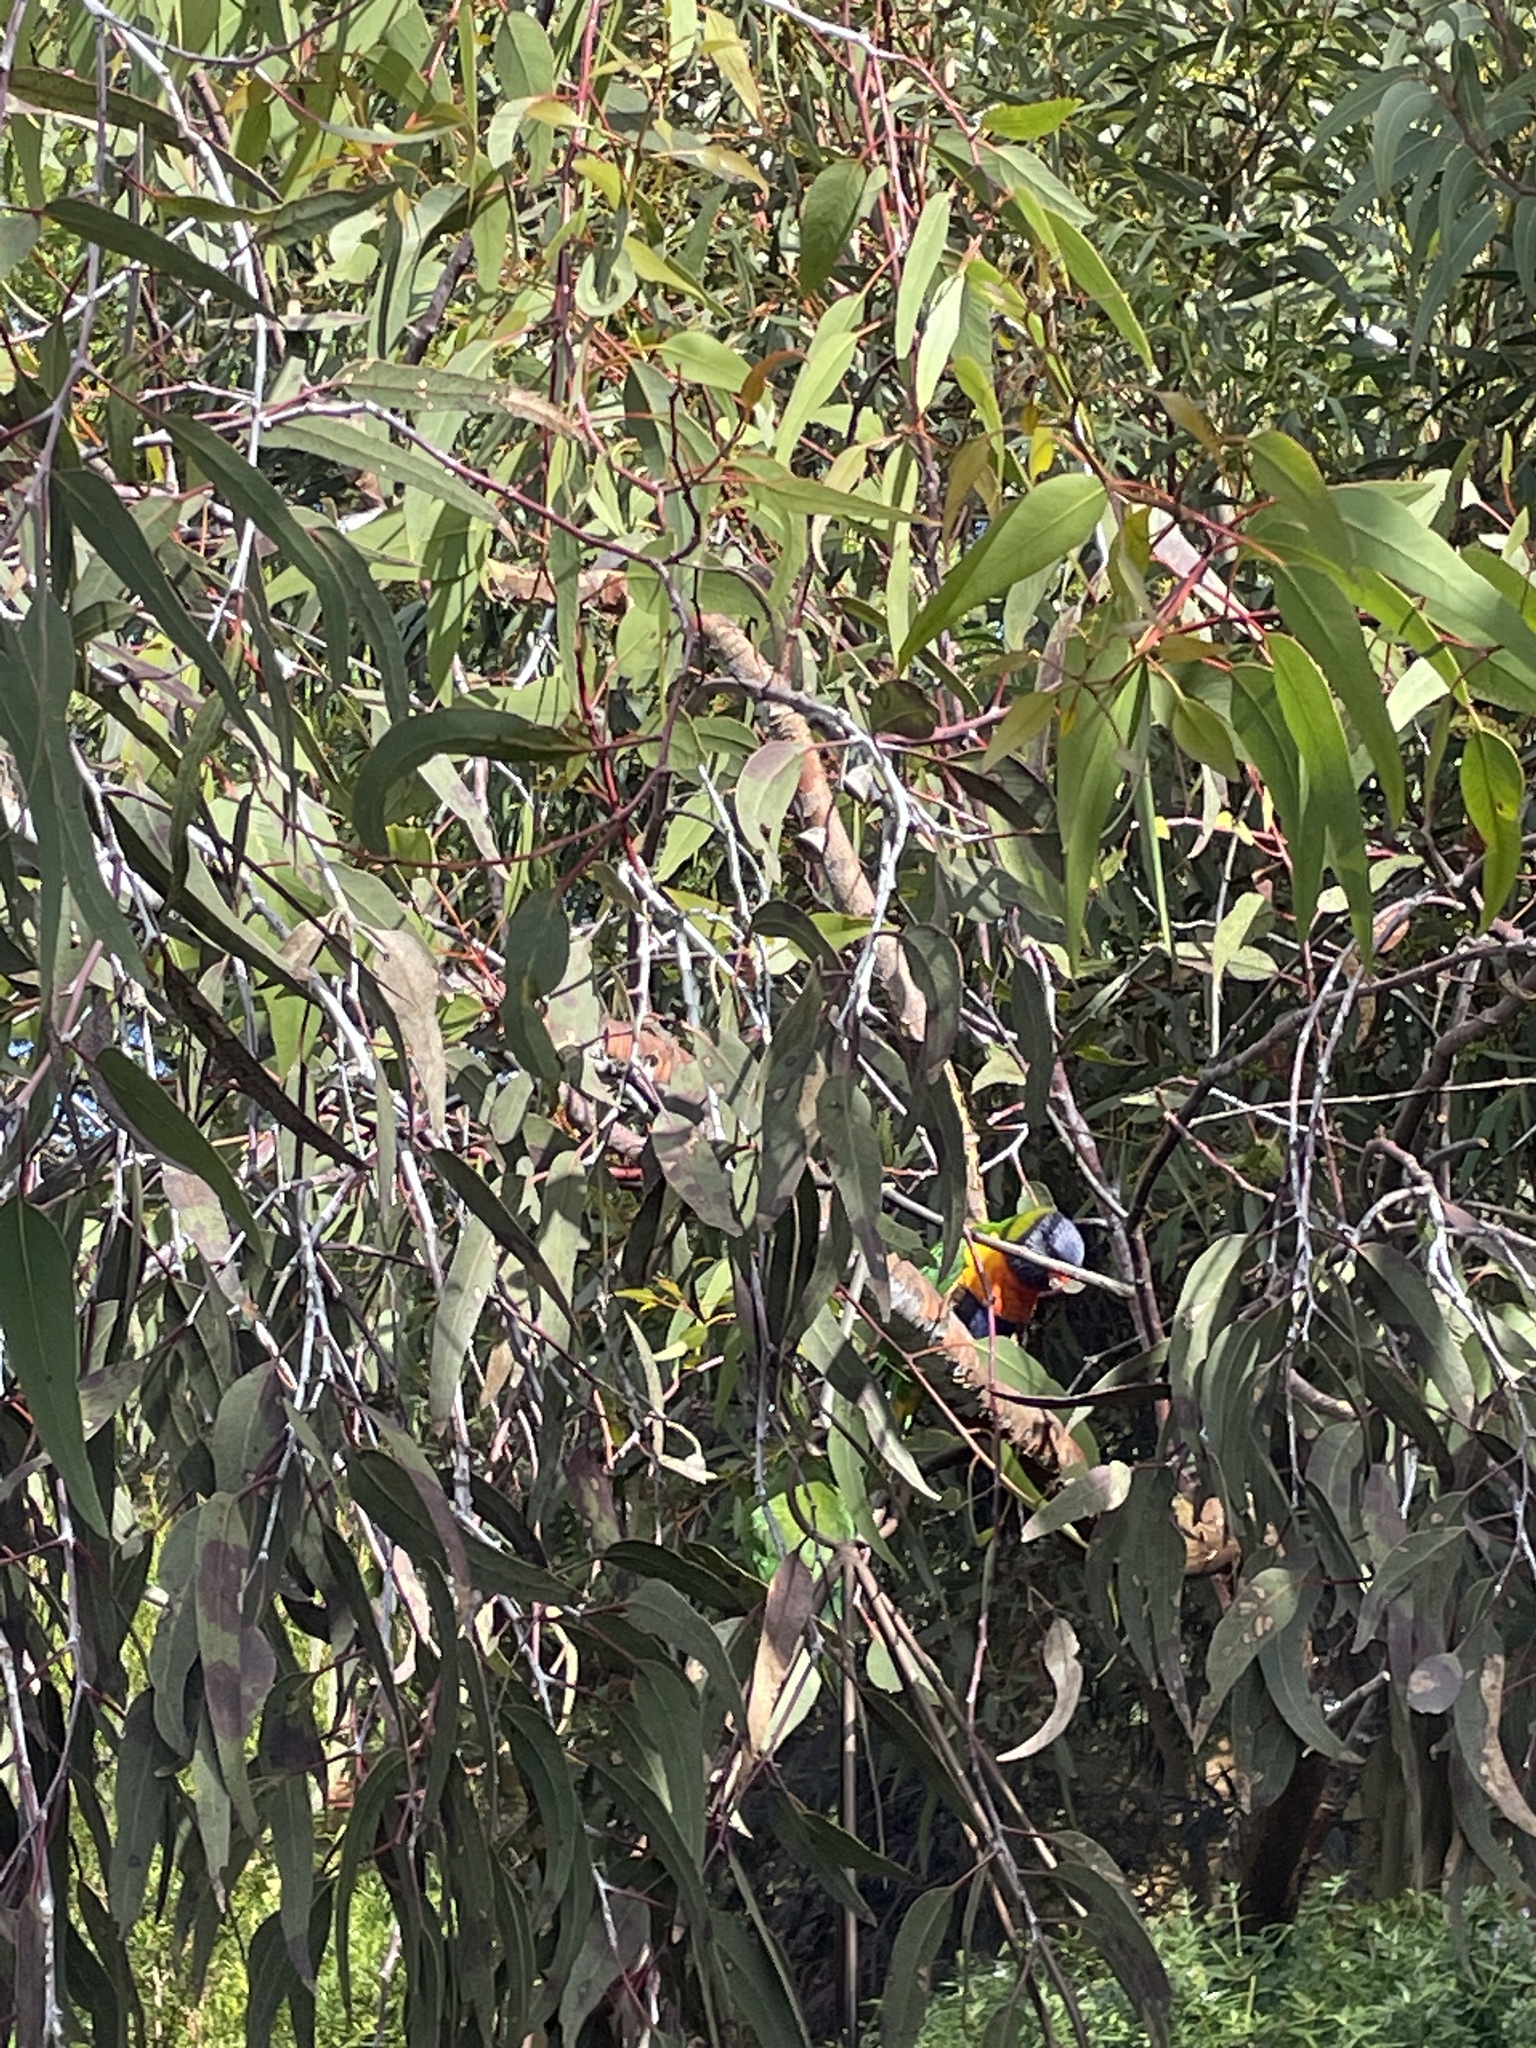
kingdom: Animalia
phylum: Chordata
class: Aves
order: Psittaciformes
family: Psittacidae
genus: Trichoglossus
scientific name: Trichoglossus haematodus
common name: Coconut lorikeet
